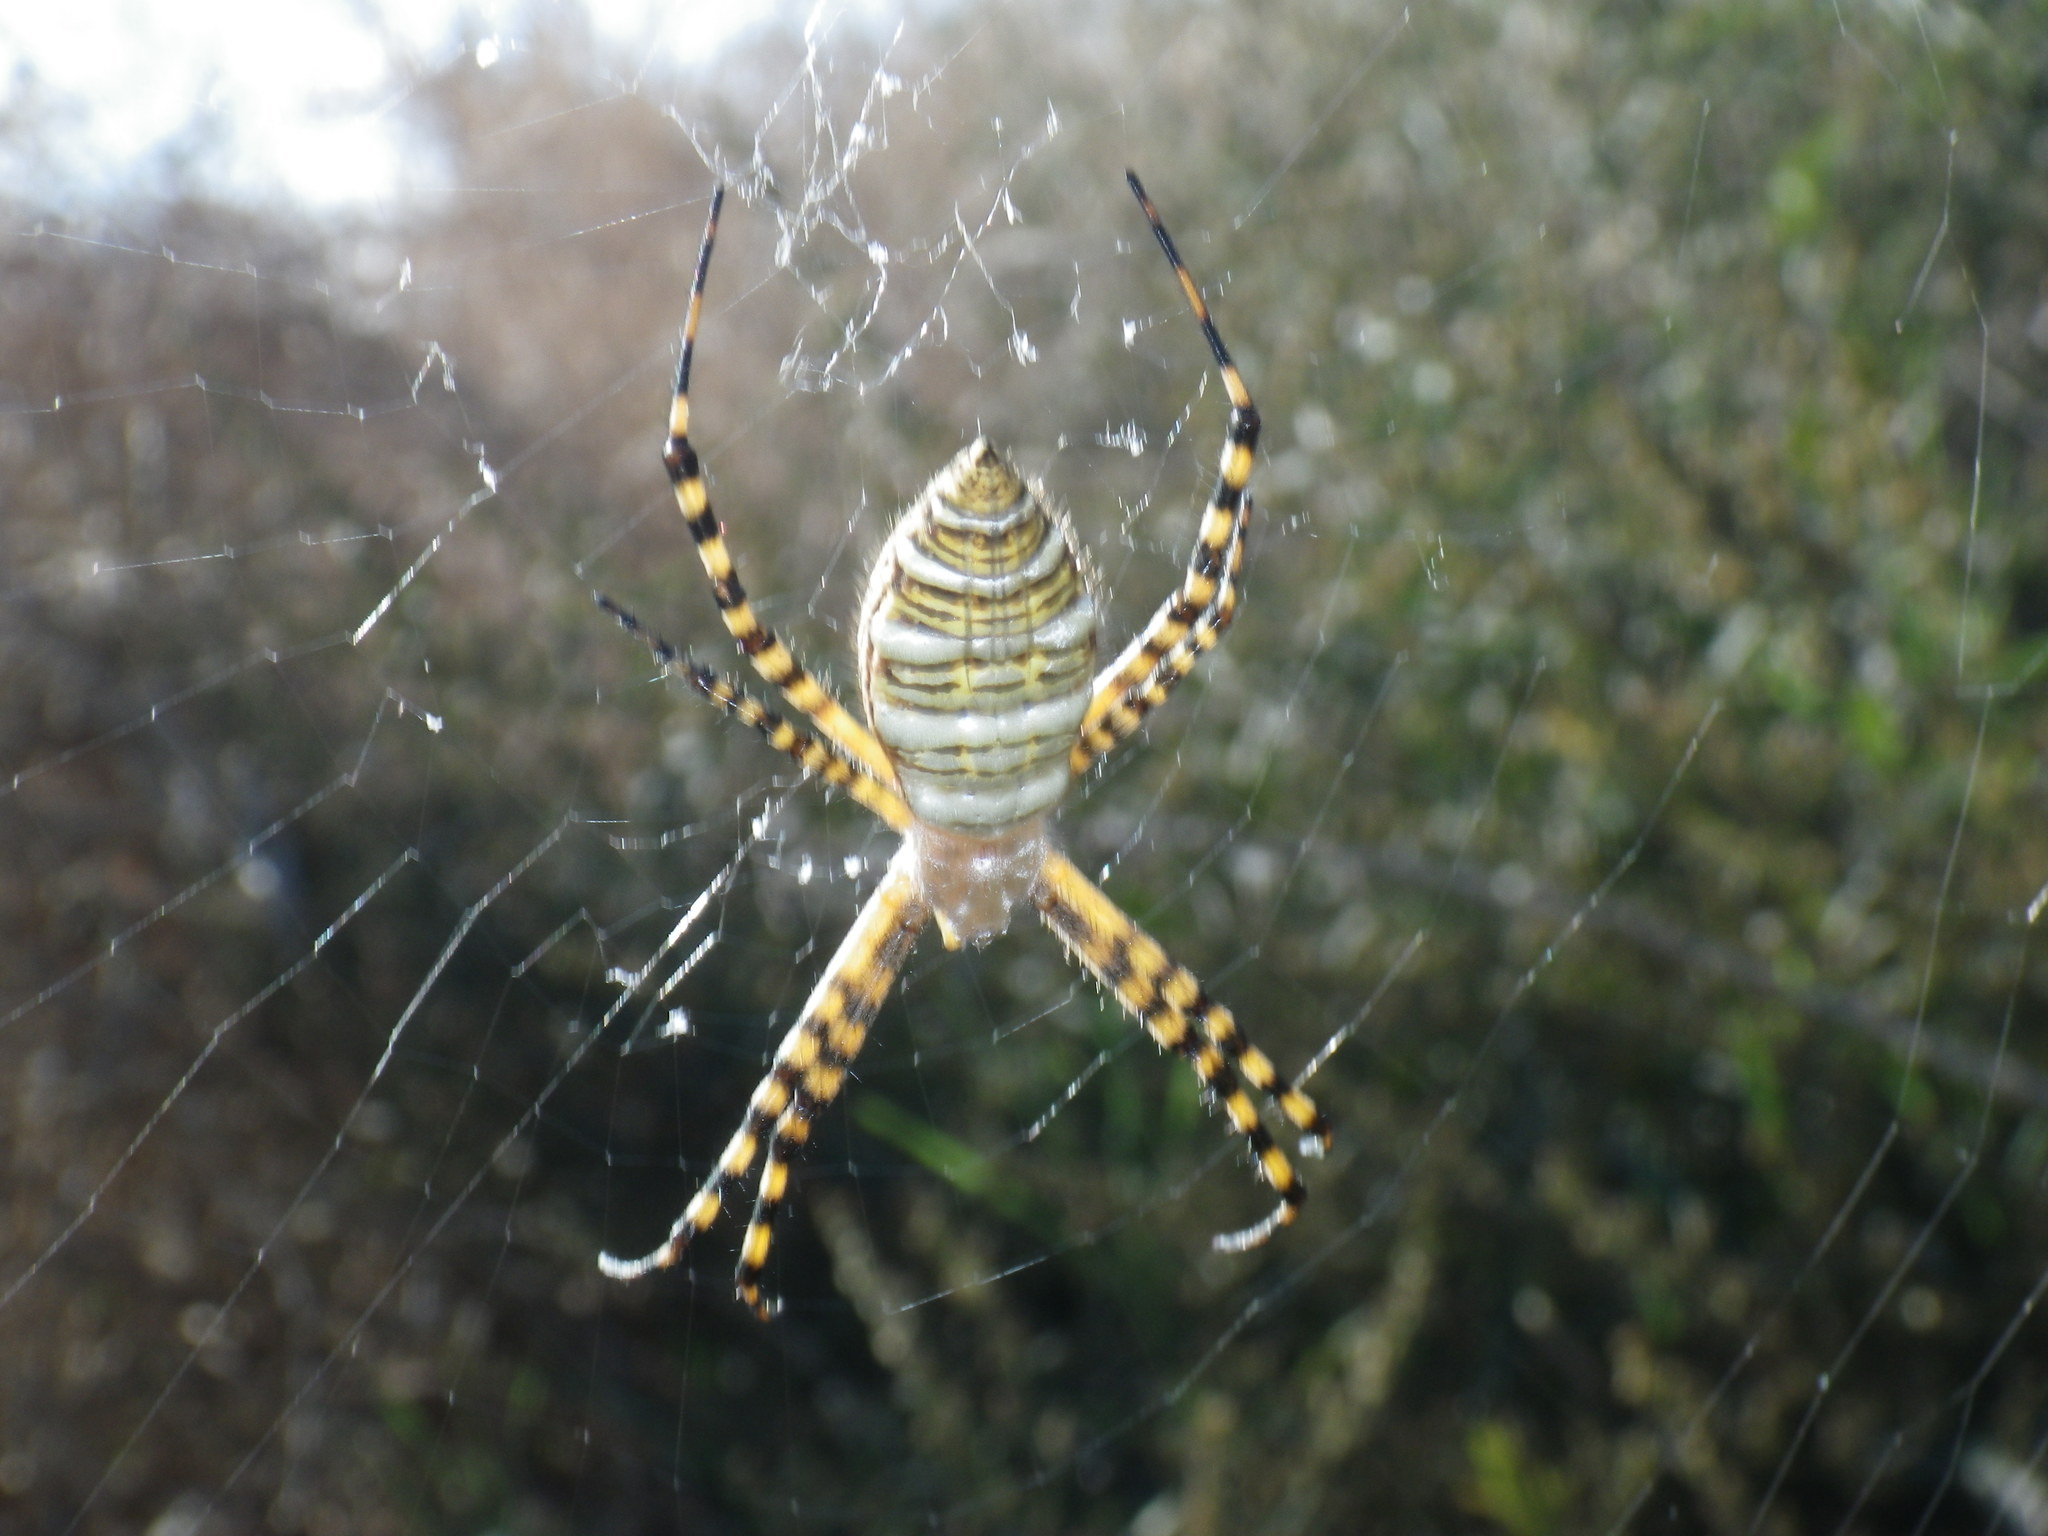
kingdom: Animalia
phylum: Arthropoda
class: Arachnida
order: Araneae
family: Araneidae
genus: Argiope
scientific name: Argiope trifasciata
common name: Banded garden spider
